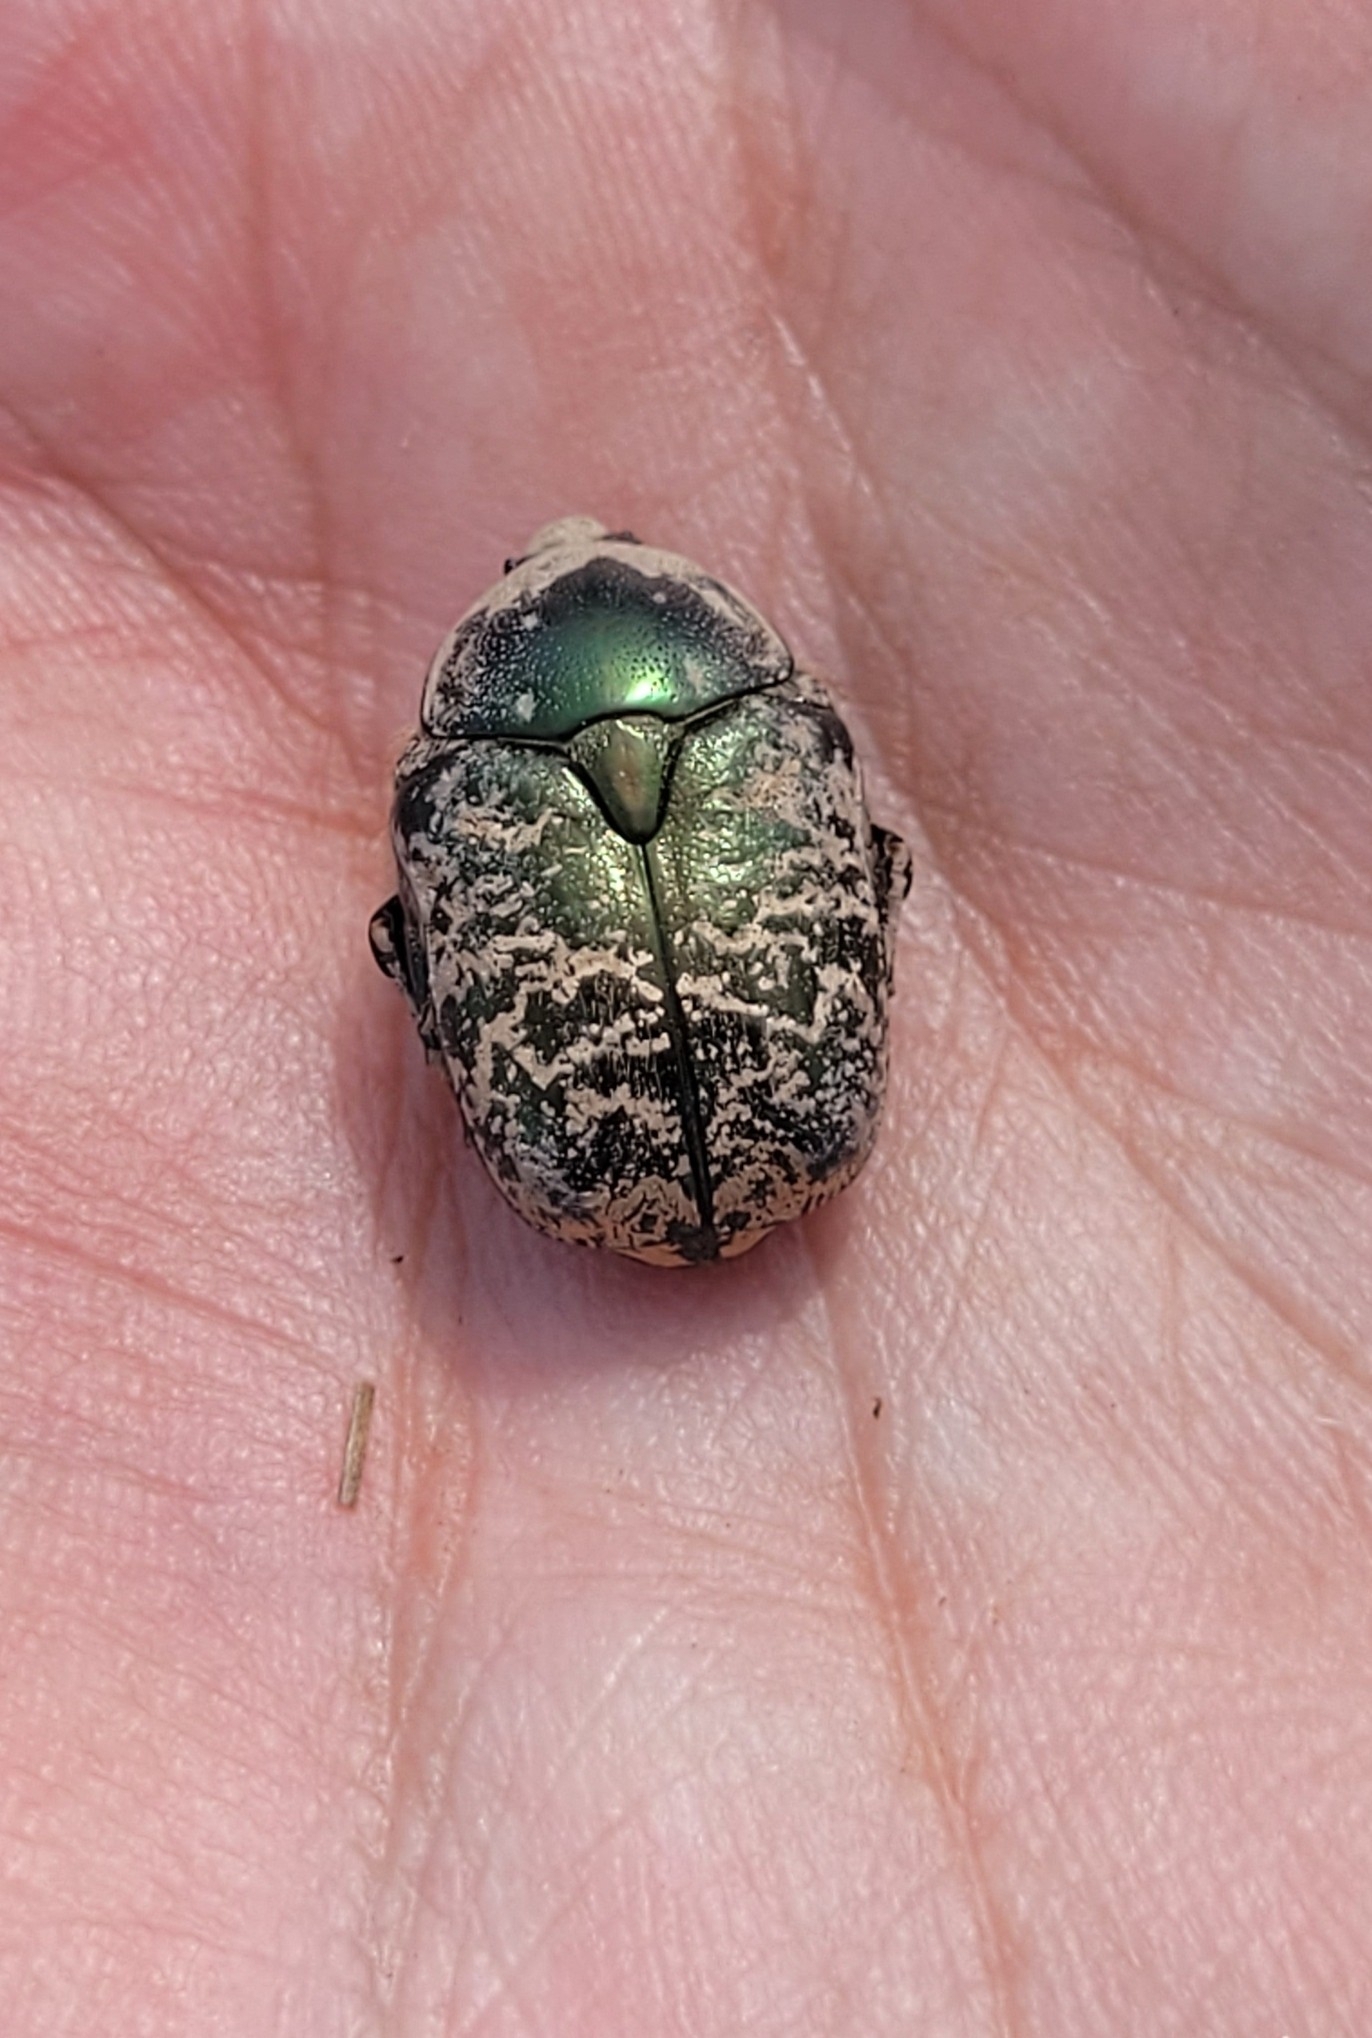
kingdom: Animalia
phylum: Arthropoda
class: Insecta
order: Coleoptera
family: Scarabaeidae
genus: Protaetia
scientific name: Protaetia karelini
